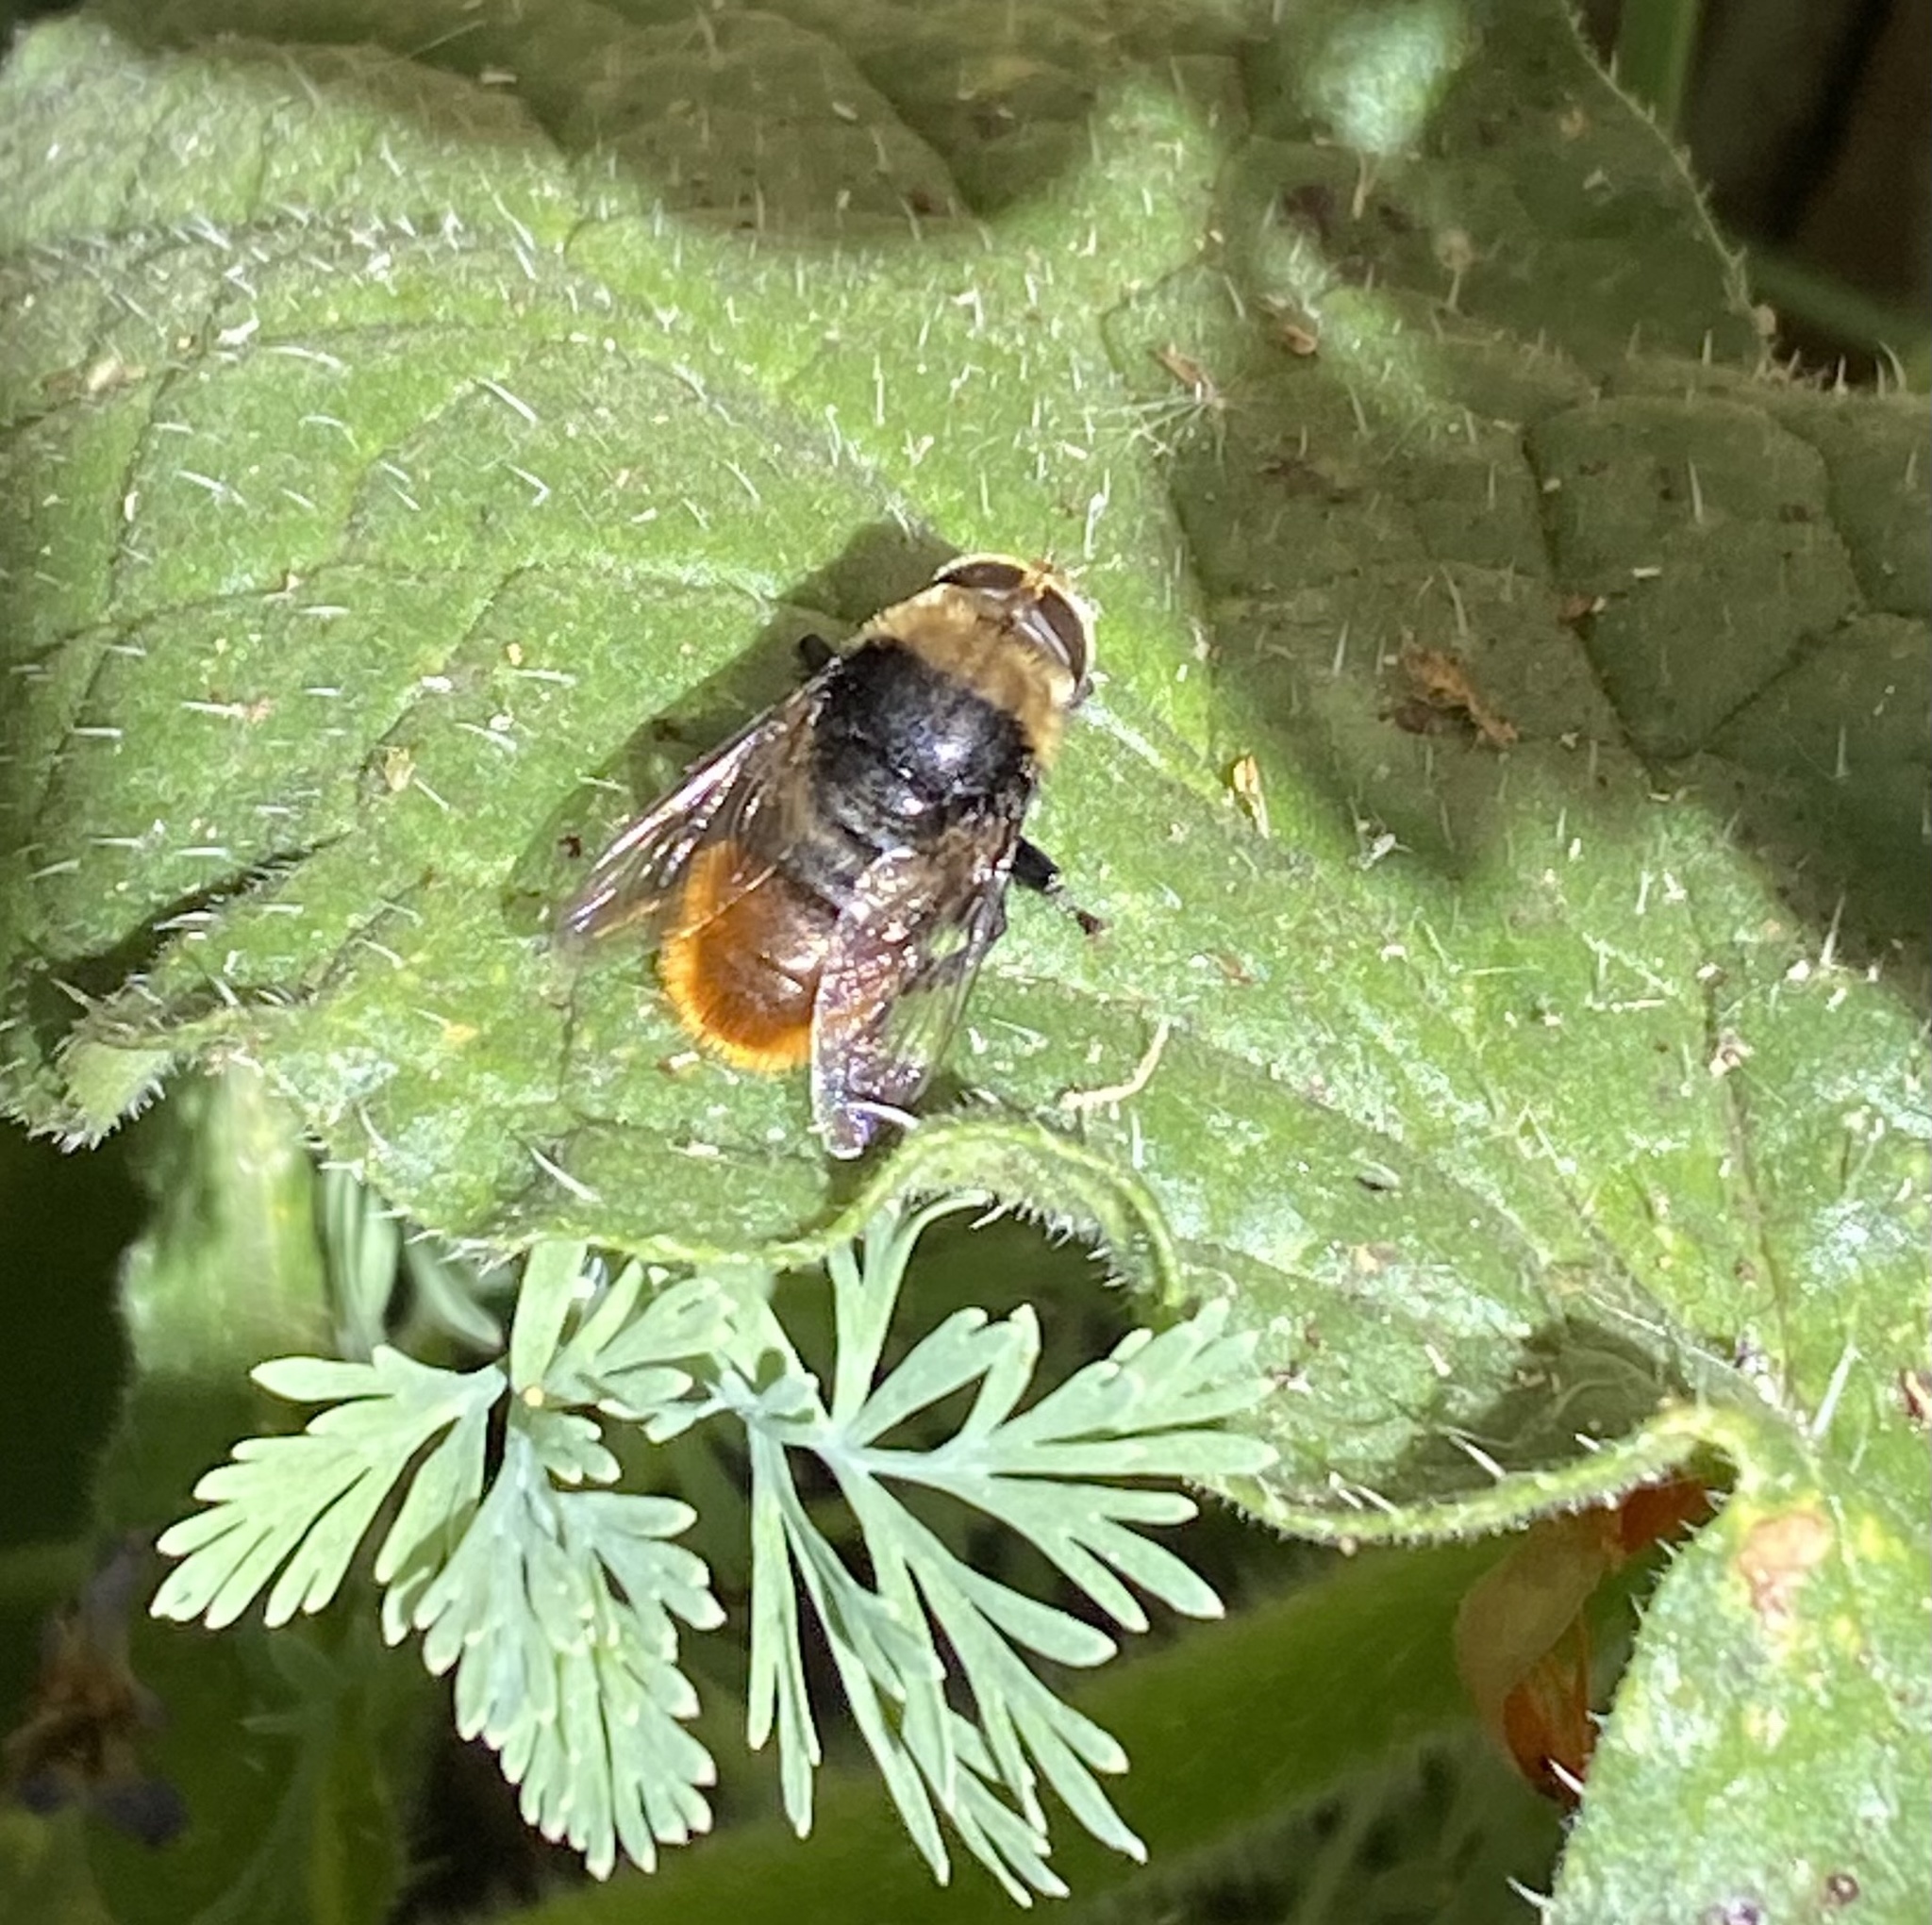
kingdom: Animalia
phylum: Arthropoda
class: Insecta
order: Diptera
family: Syrphidae
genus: Merodon
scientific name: Merodon equestris
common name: Greater bulb-fly
